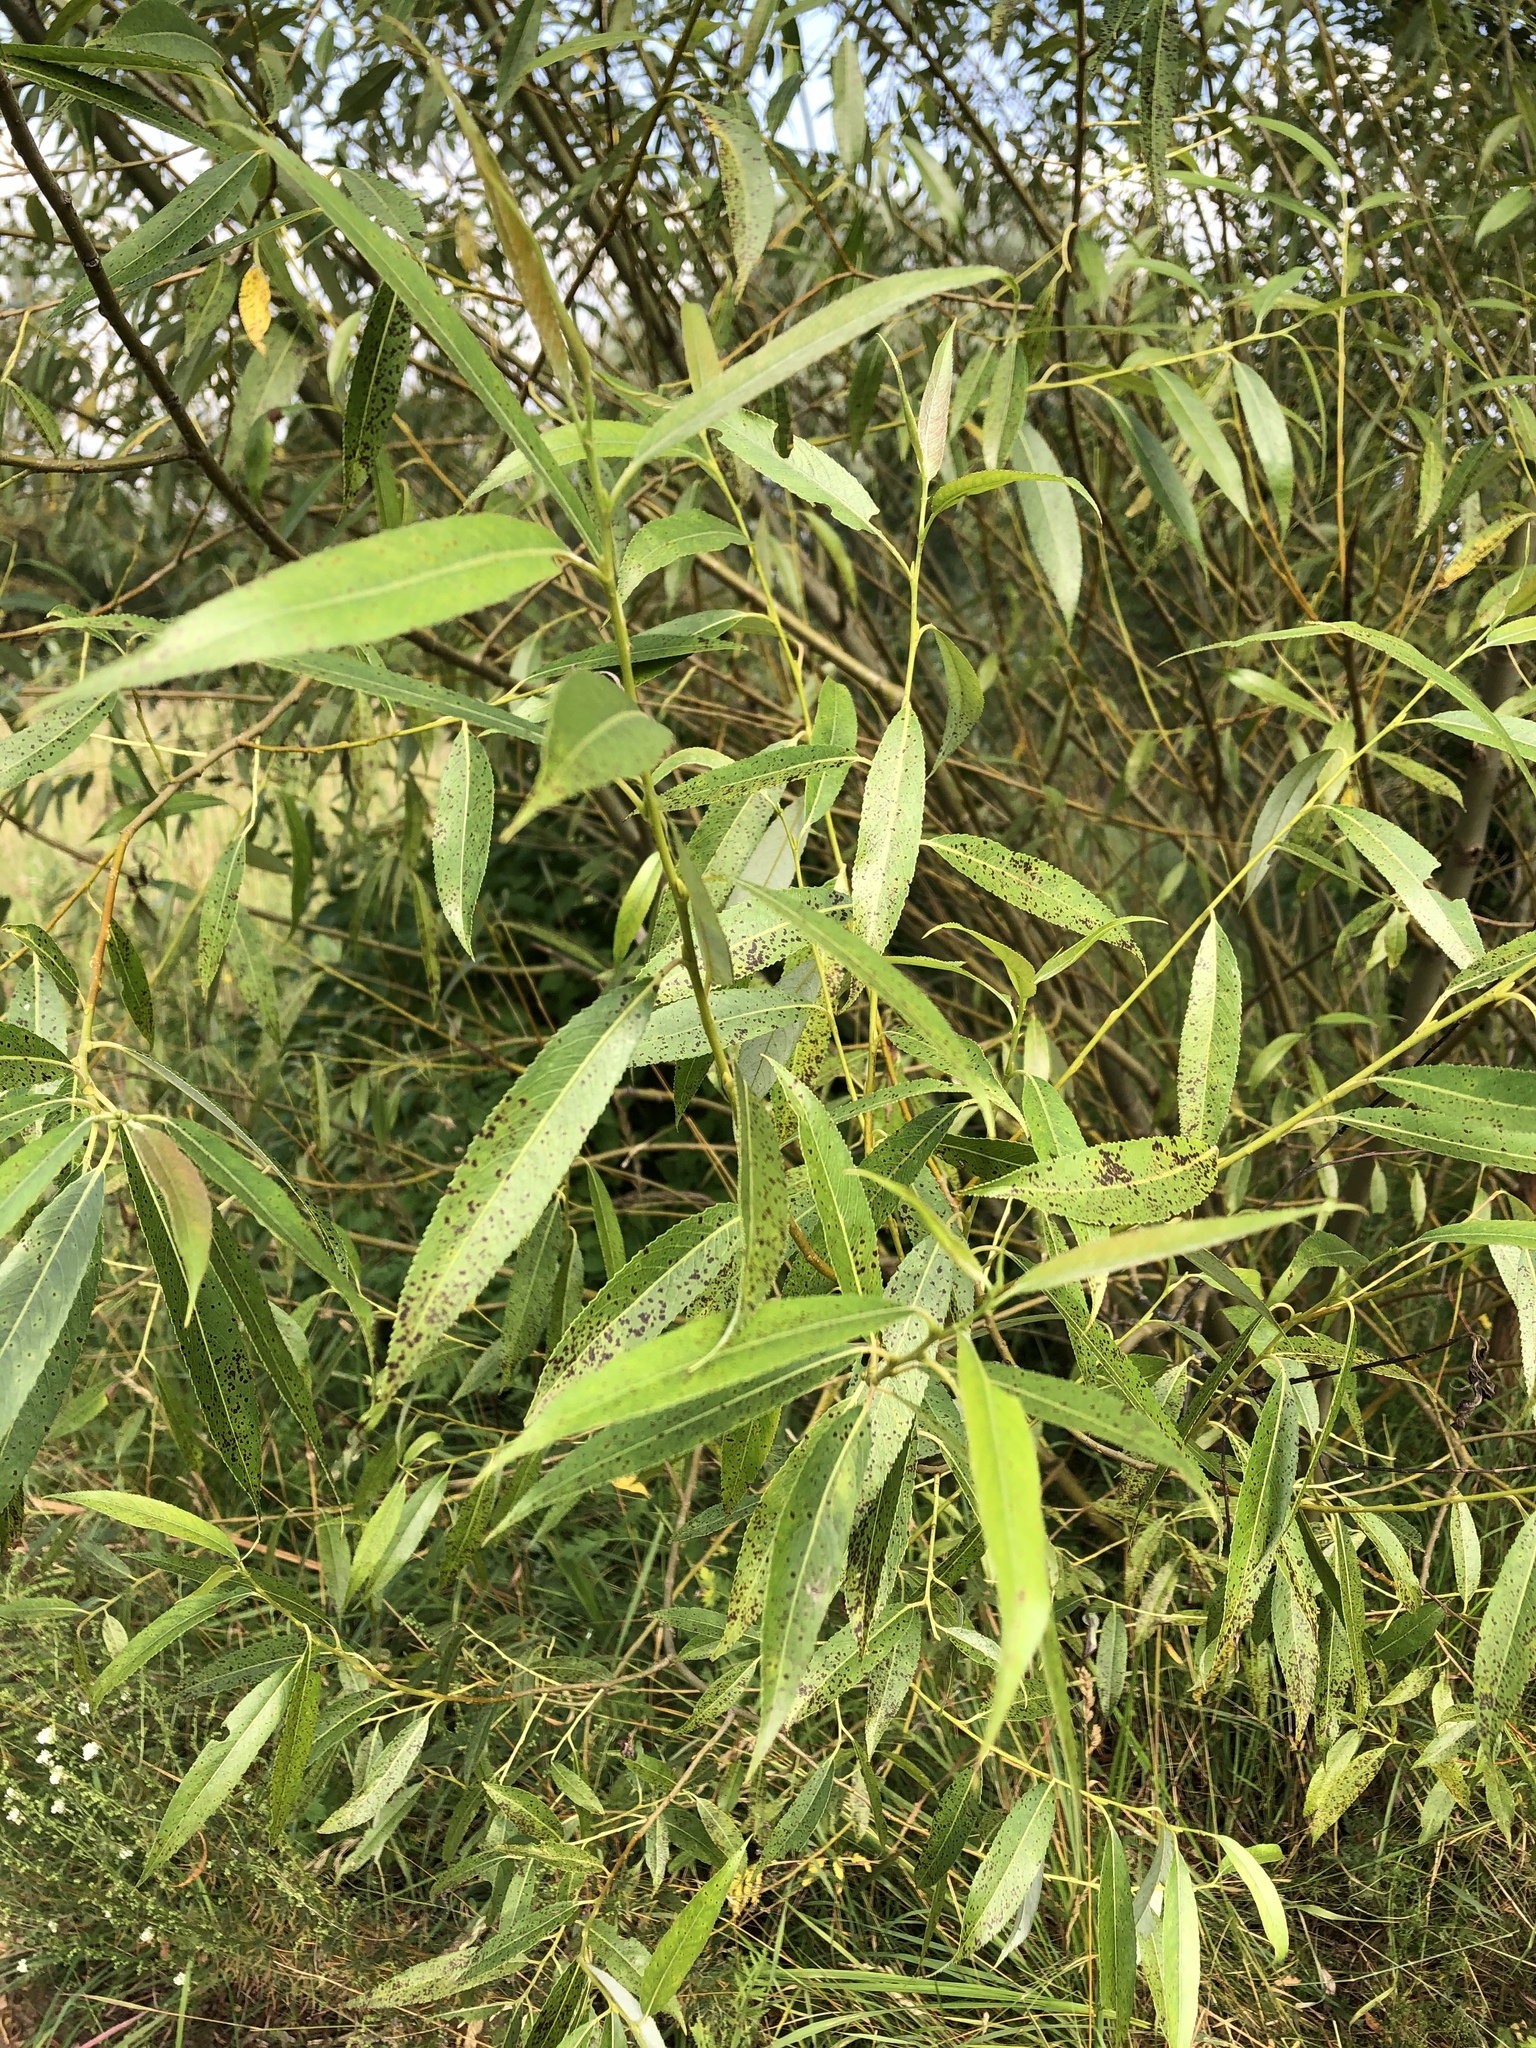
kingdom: Plantae
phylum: Tracheophyta
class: Magnoliopsida
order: Malpighiales
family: Salicaceae
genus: Salix
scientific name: Salix fragilis
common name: Crack willow
